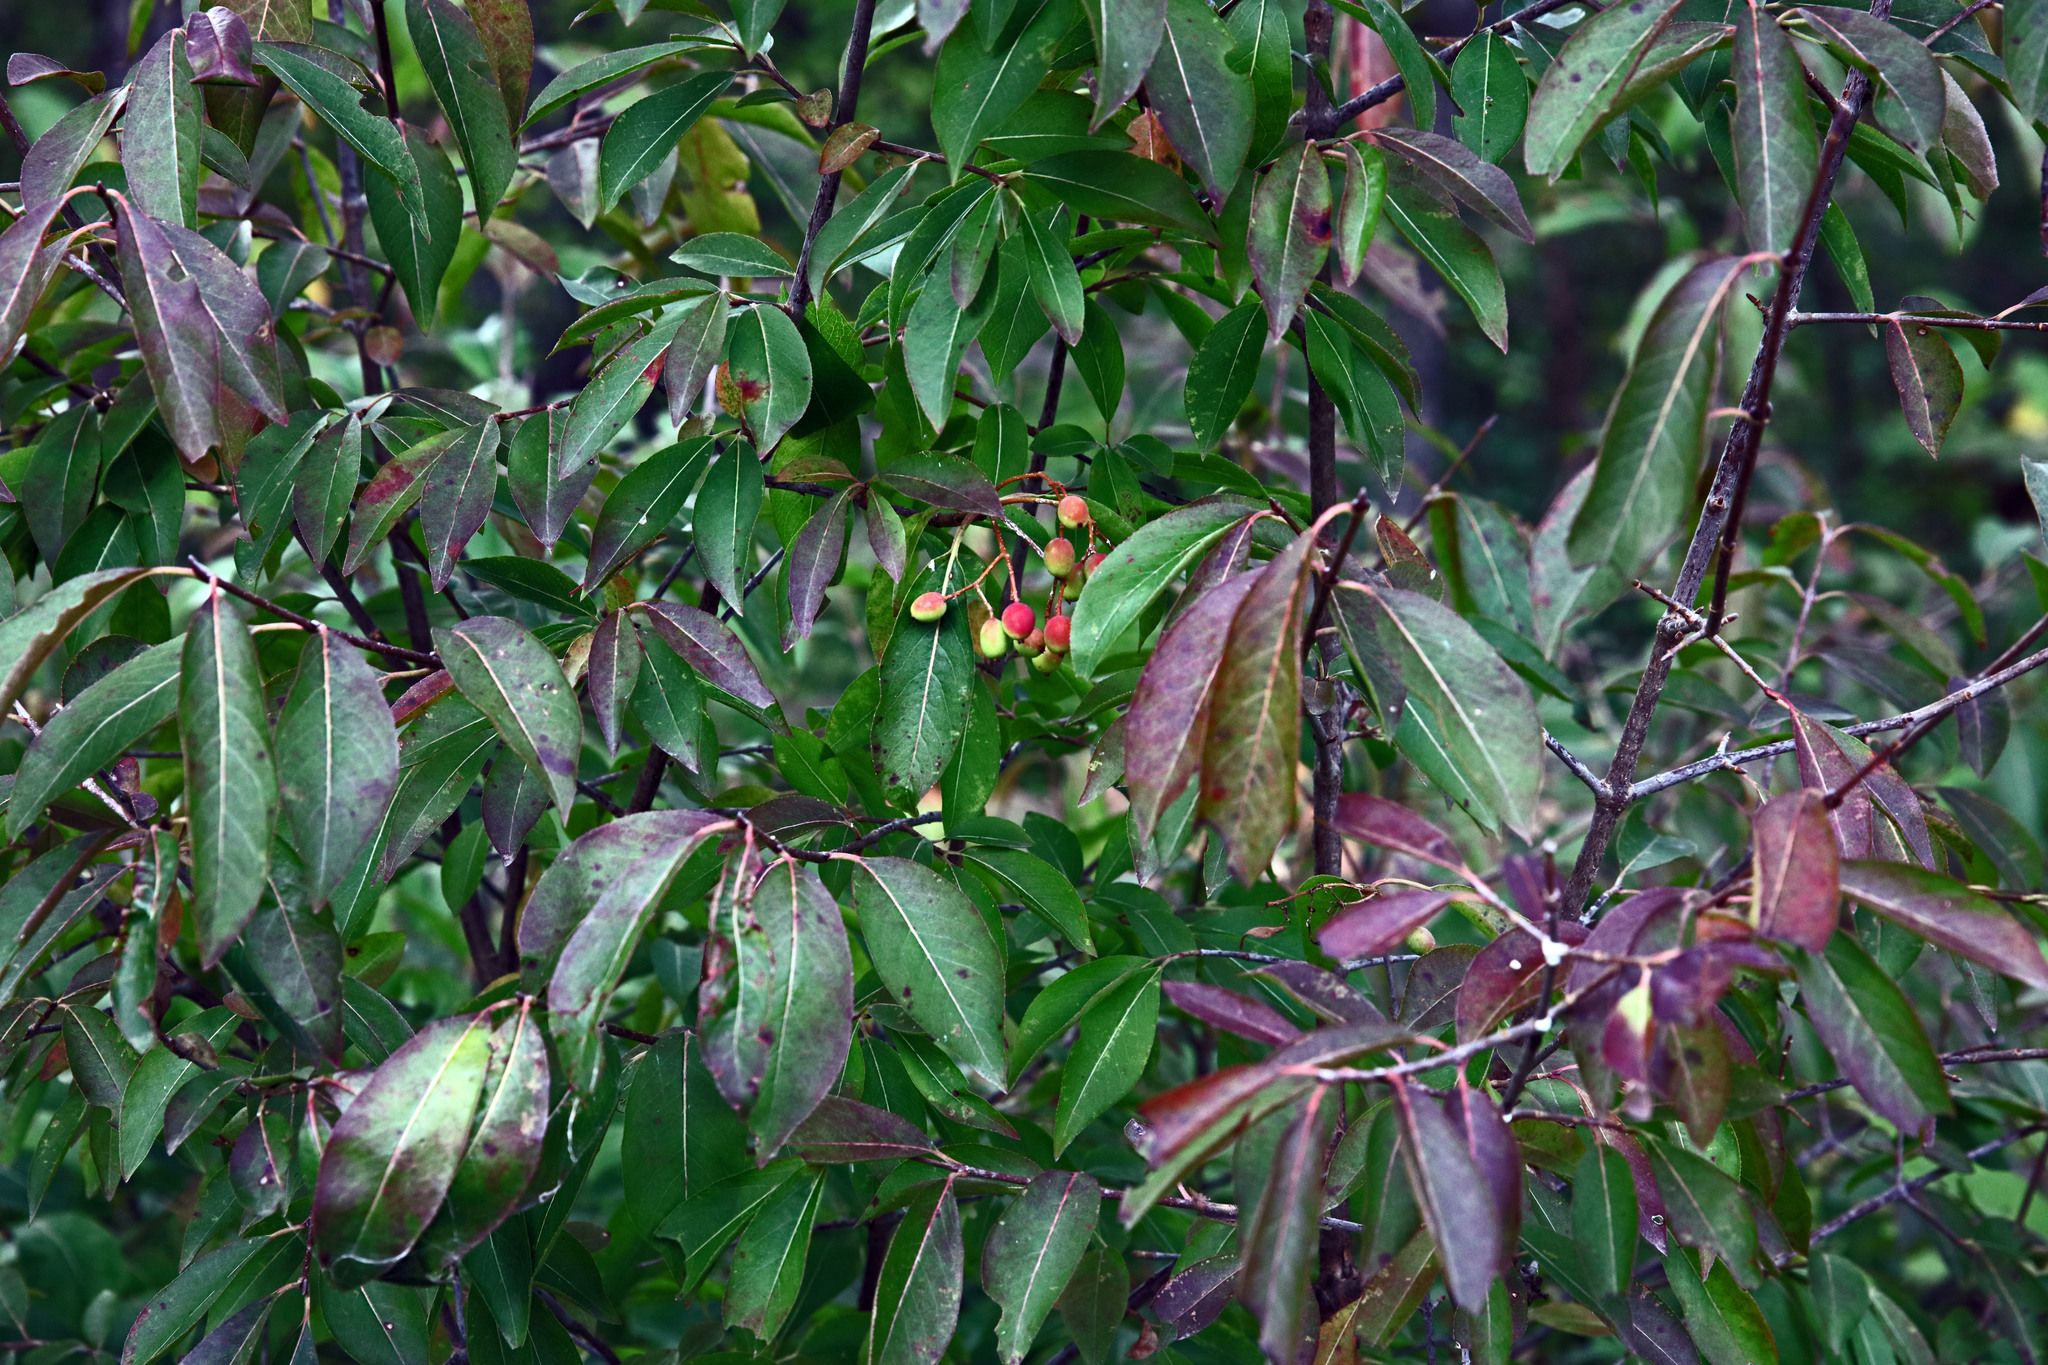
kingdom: Plantae
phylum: Tracheophyta
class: Magnoliopsida
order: Dipsacales
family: Viburnaceae
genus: Viburnum
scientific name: Viburnum prunifolium
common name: Black haw
